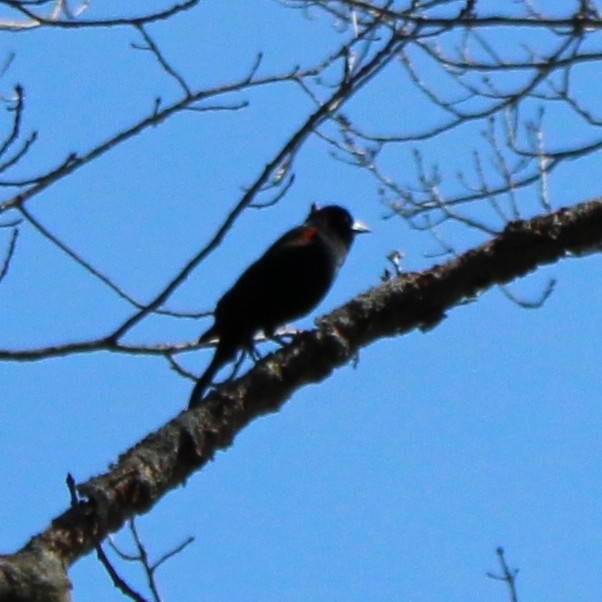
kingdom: Animalia
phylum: Chordata
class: Aves
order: Passeriformes
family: Icteridae
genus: Agelaius
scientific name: Agelaius phoeniceus
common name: Red-winged blackbird
